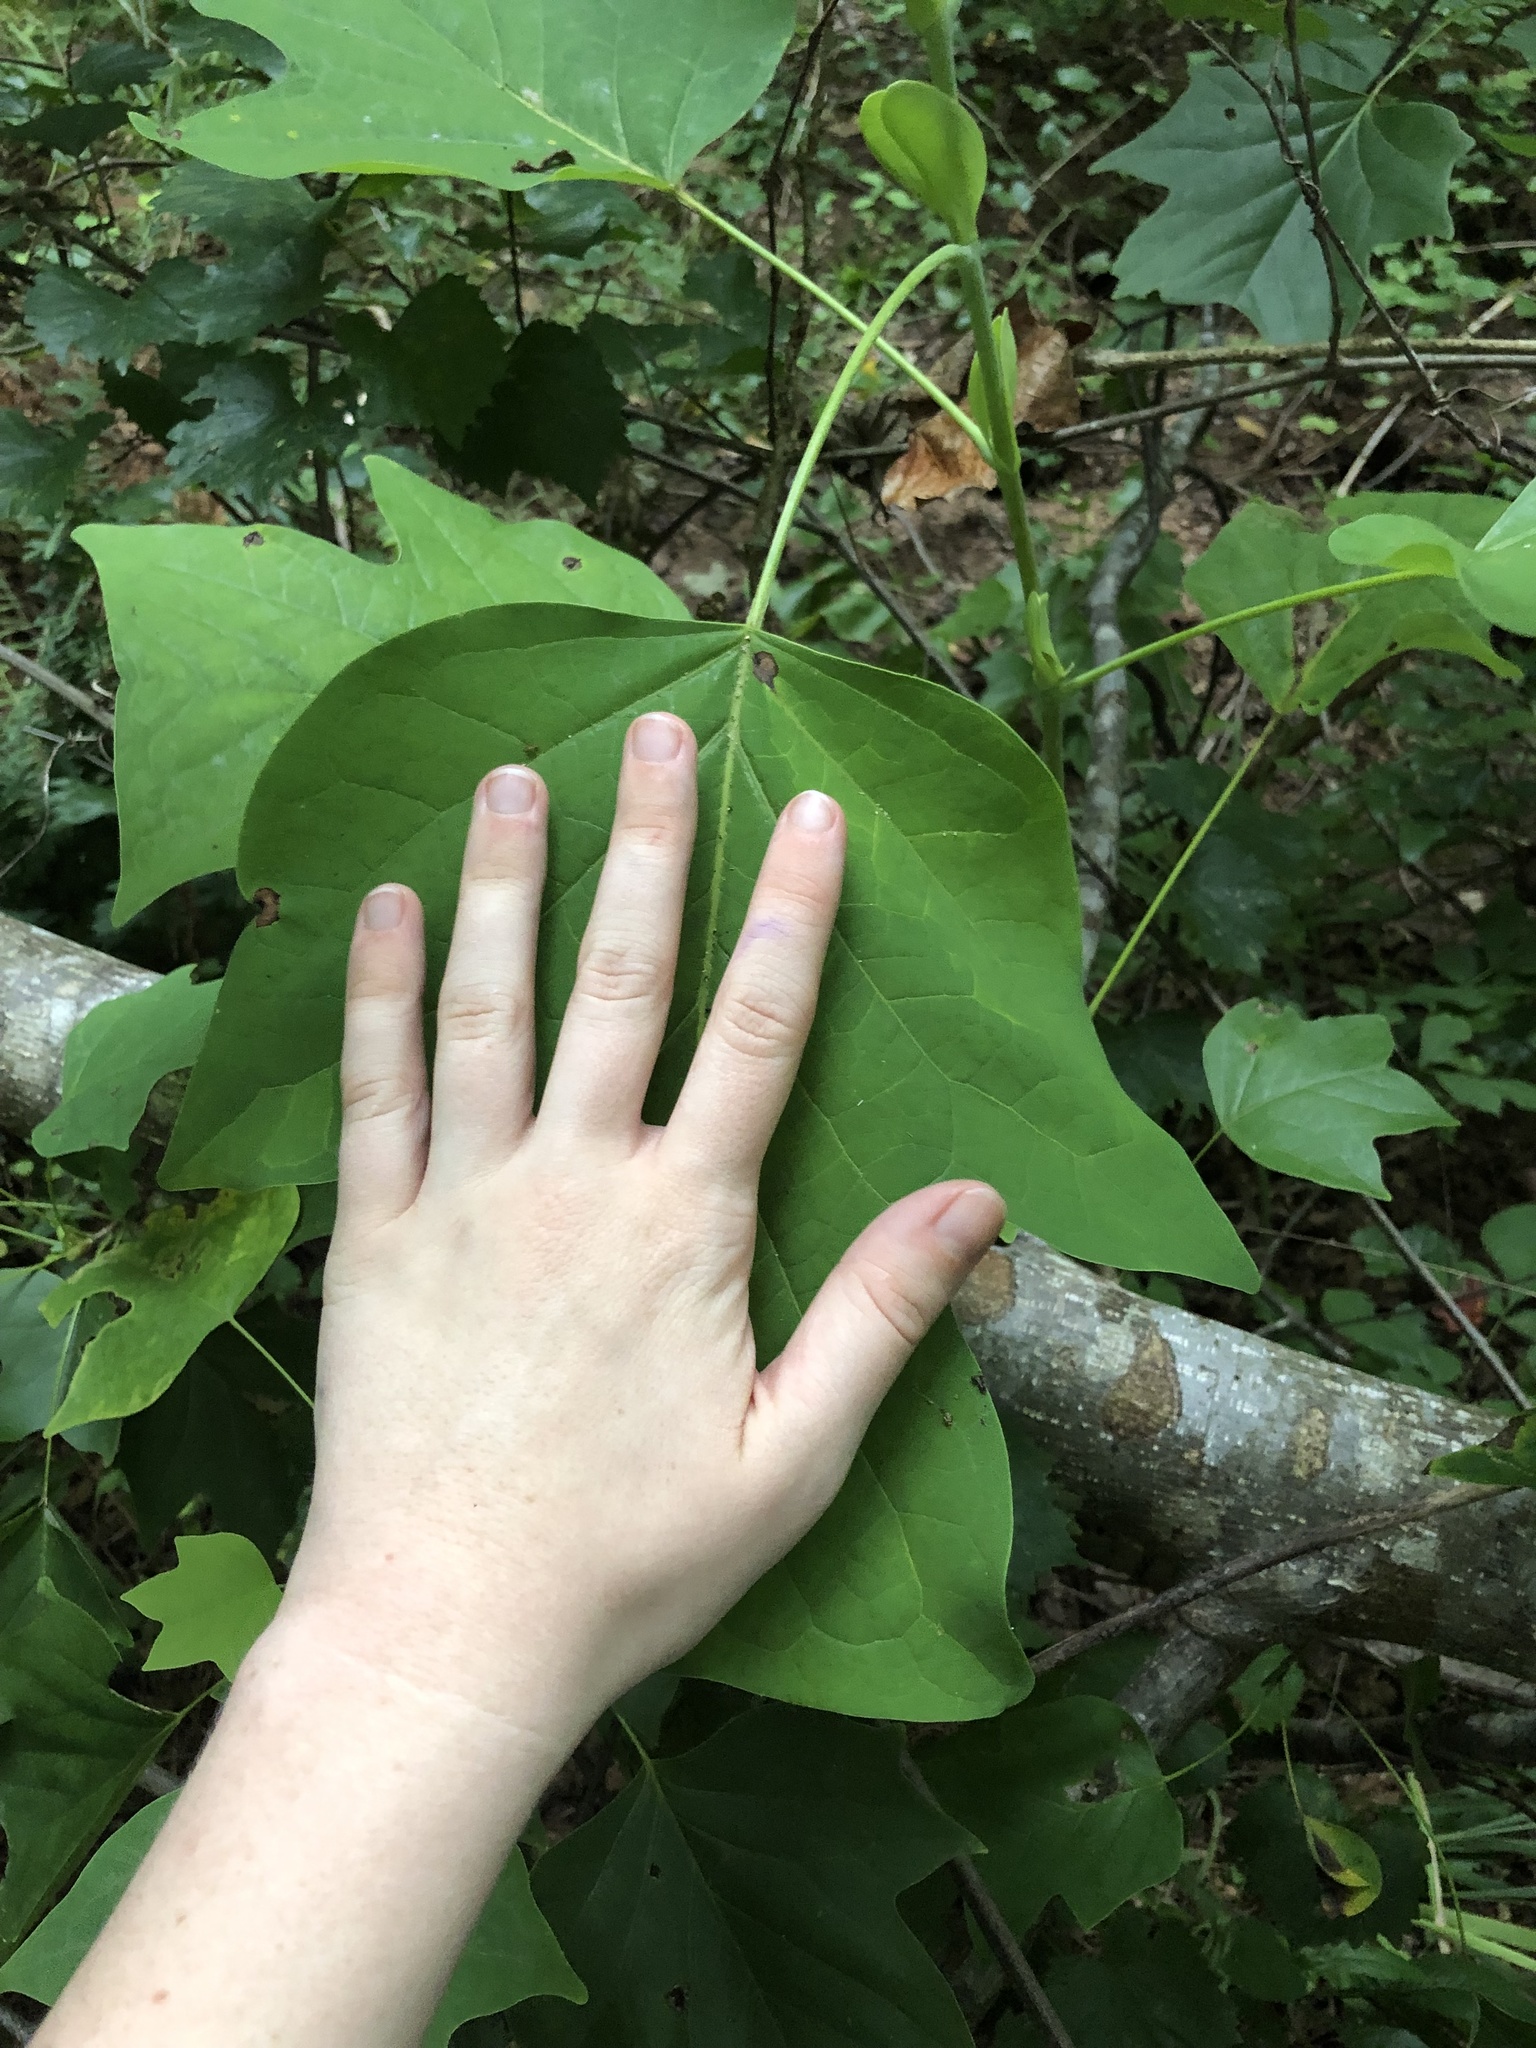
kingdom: Plantae
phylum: Tracheophyta
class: Magnoliopsida
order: Magnoliales
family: Magnoliaceae
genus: Liriodendron
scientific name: Liriodendron tulipifera
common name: Tulip tree
